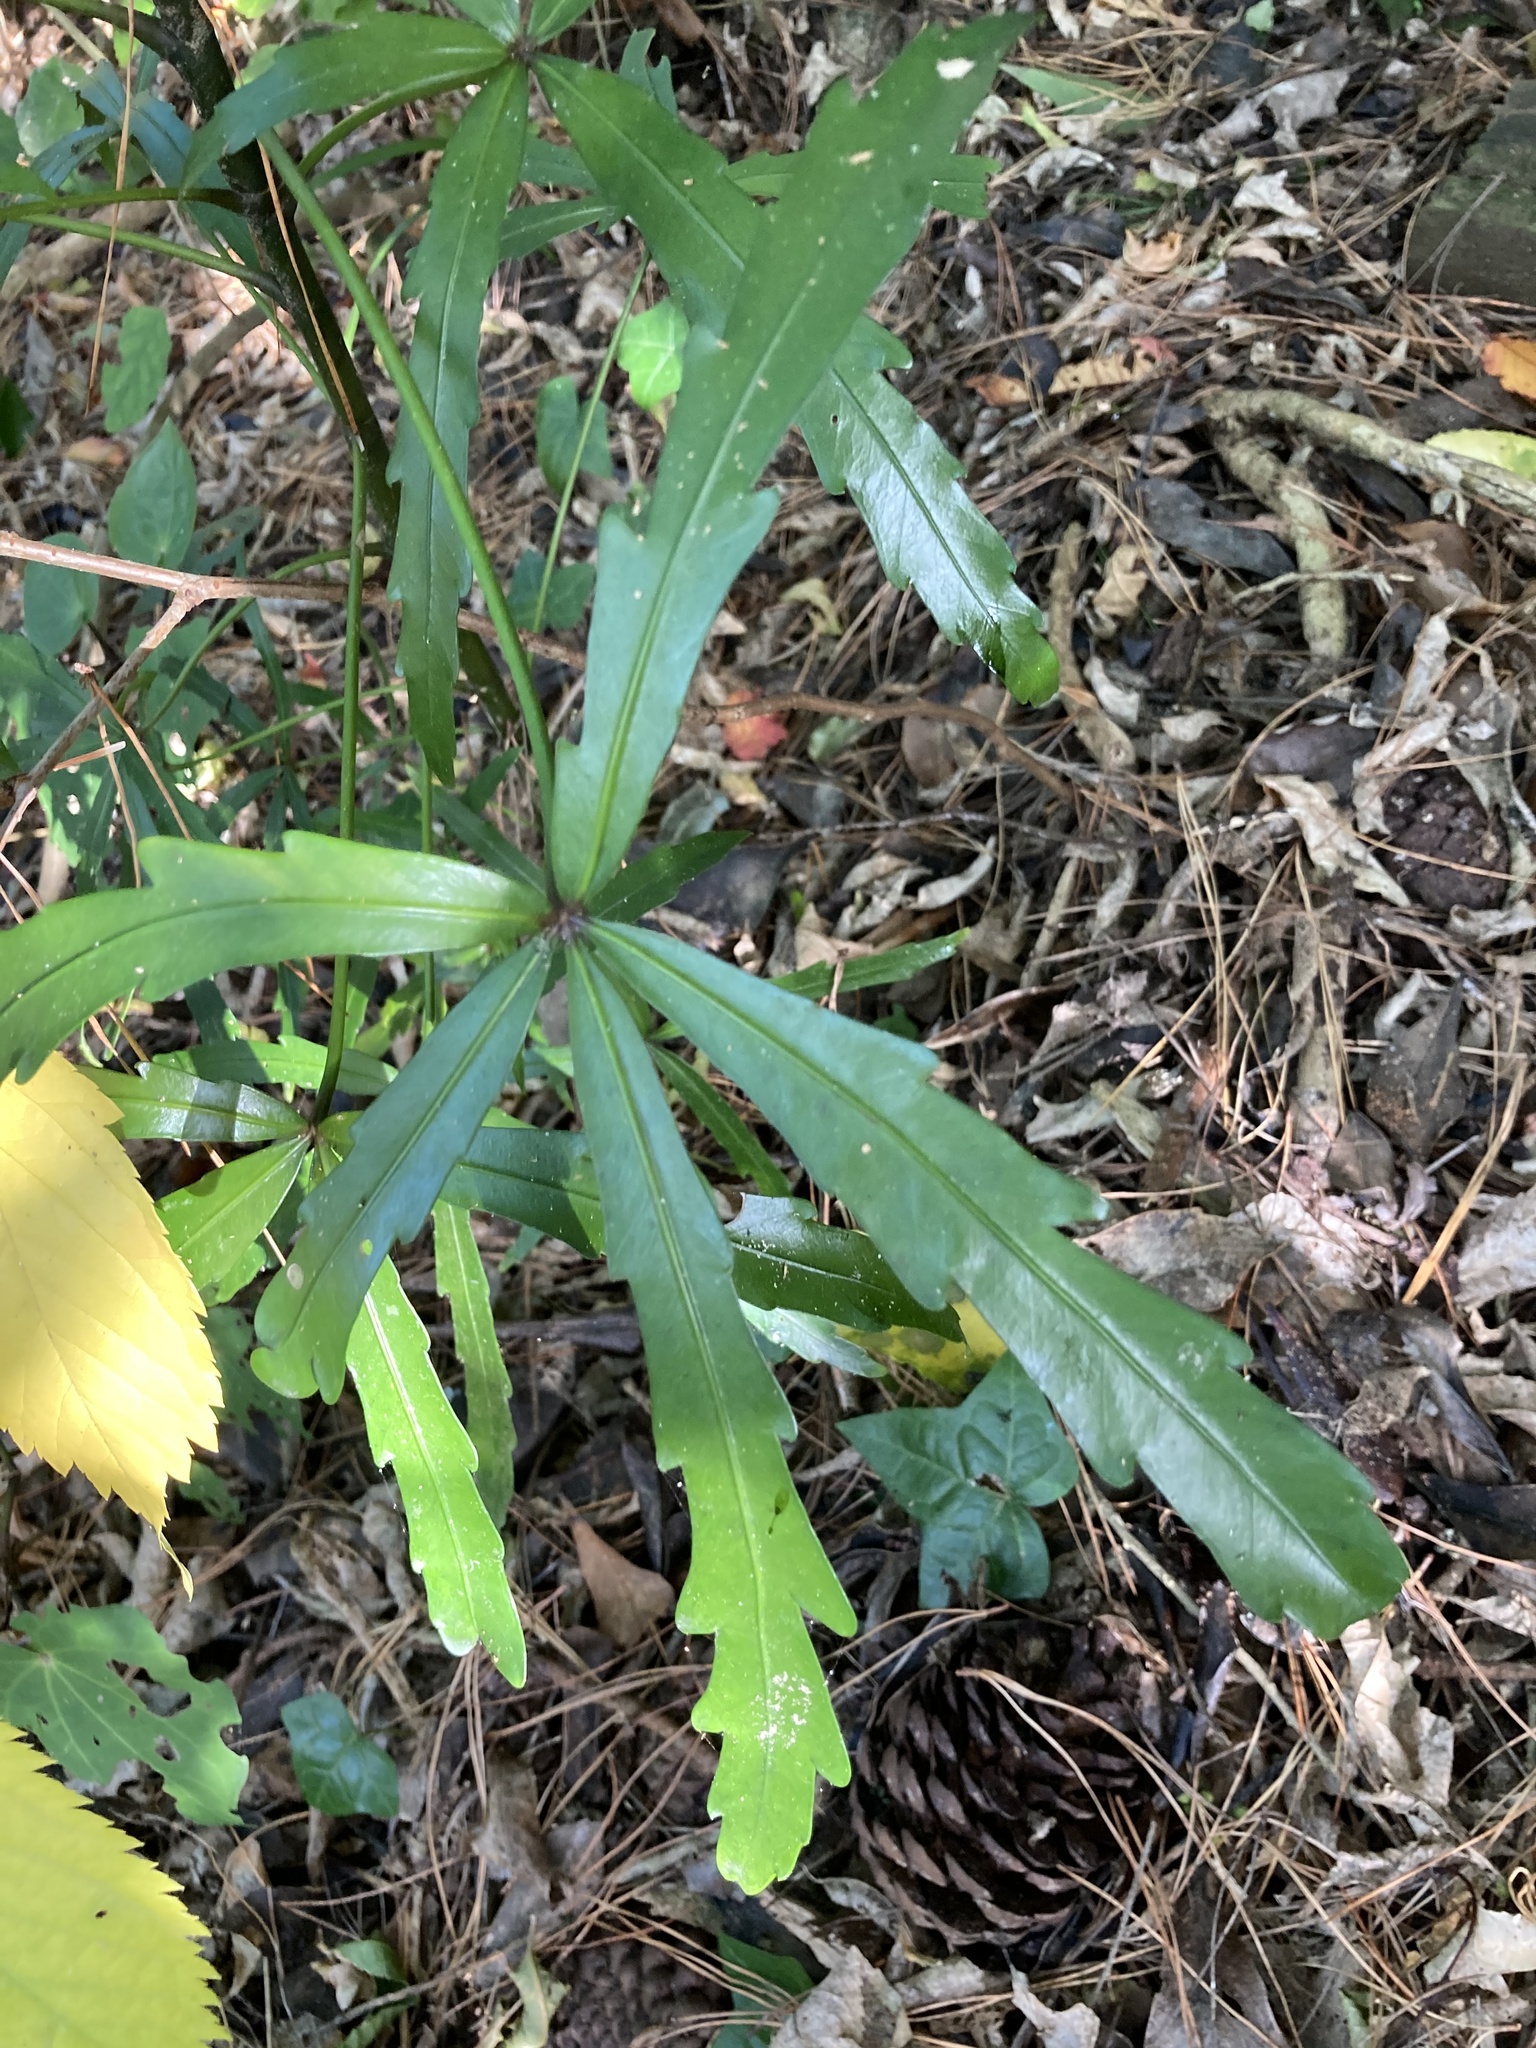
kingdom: Plantae
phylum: Tracheophyta
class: Magnoliopsida
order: Apiales
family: Araliaceae
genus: Pseudopanax
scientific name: Pseudopanax
